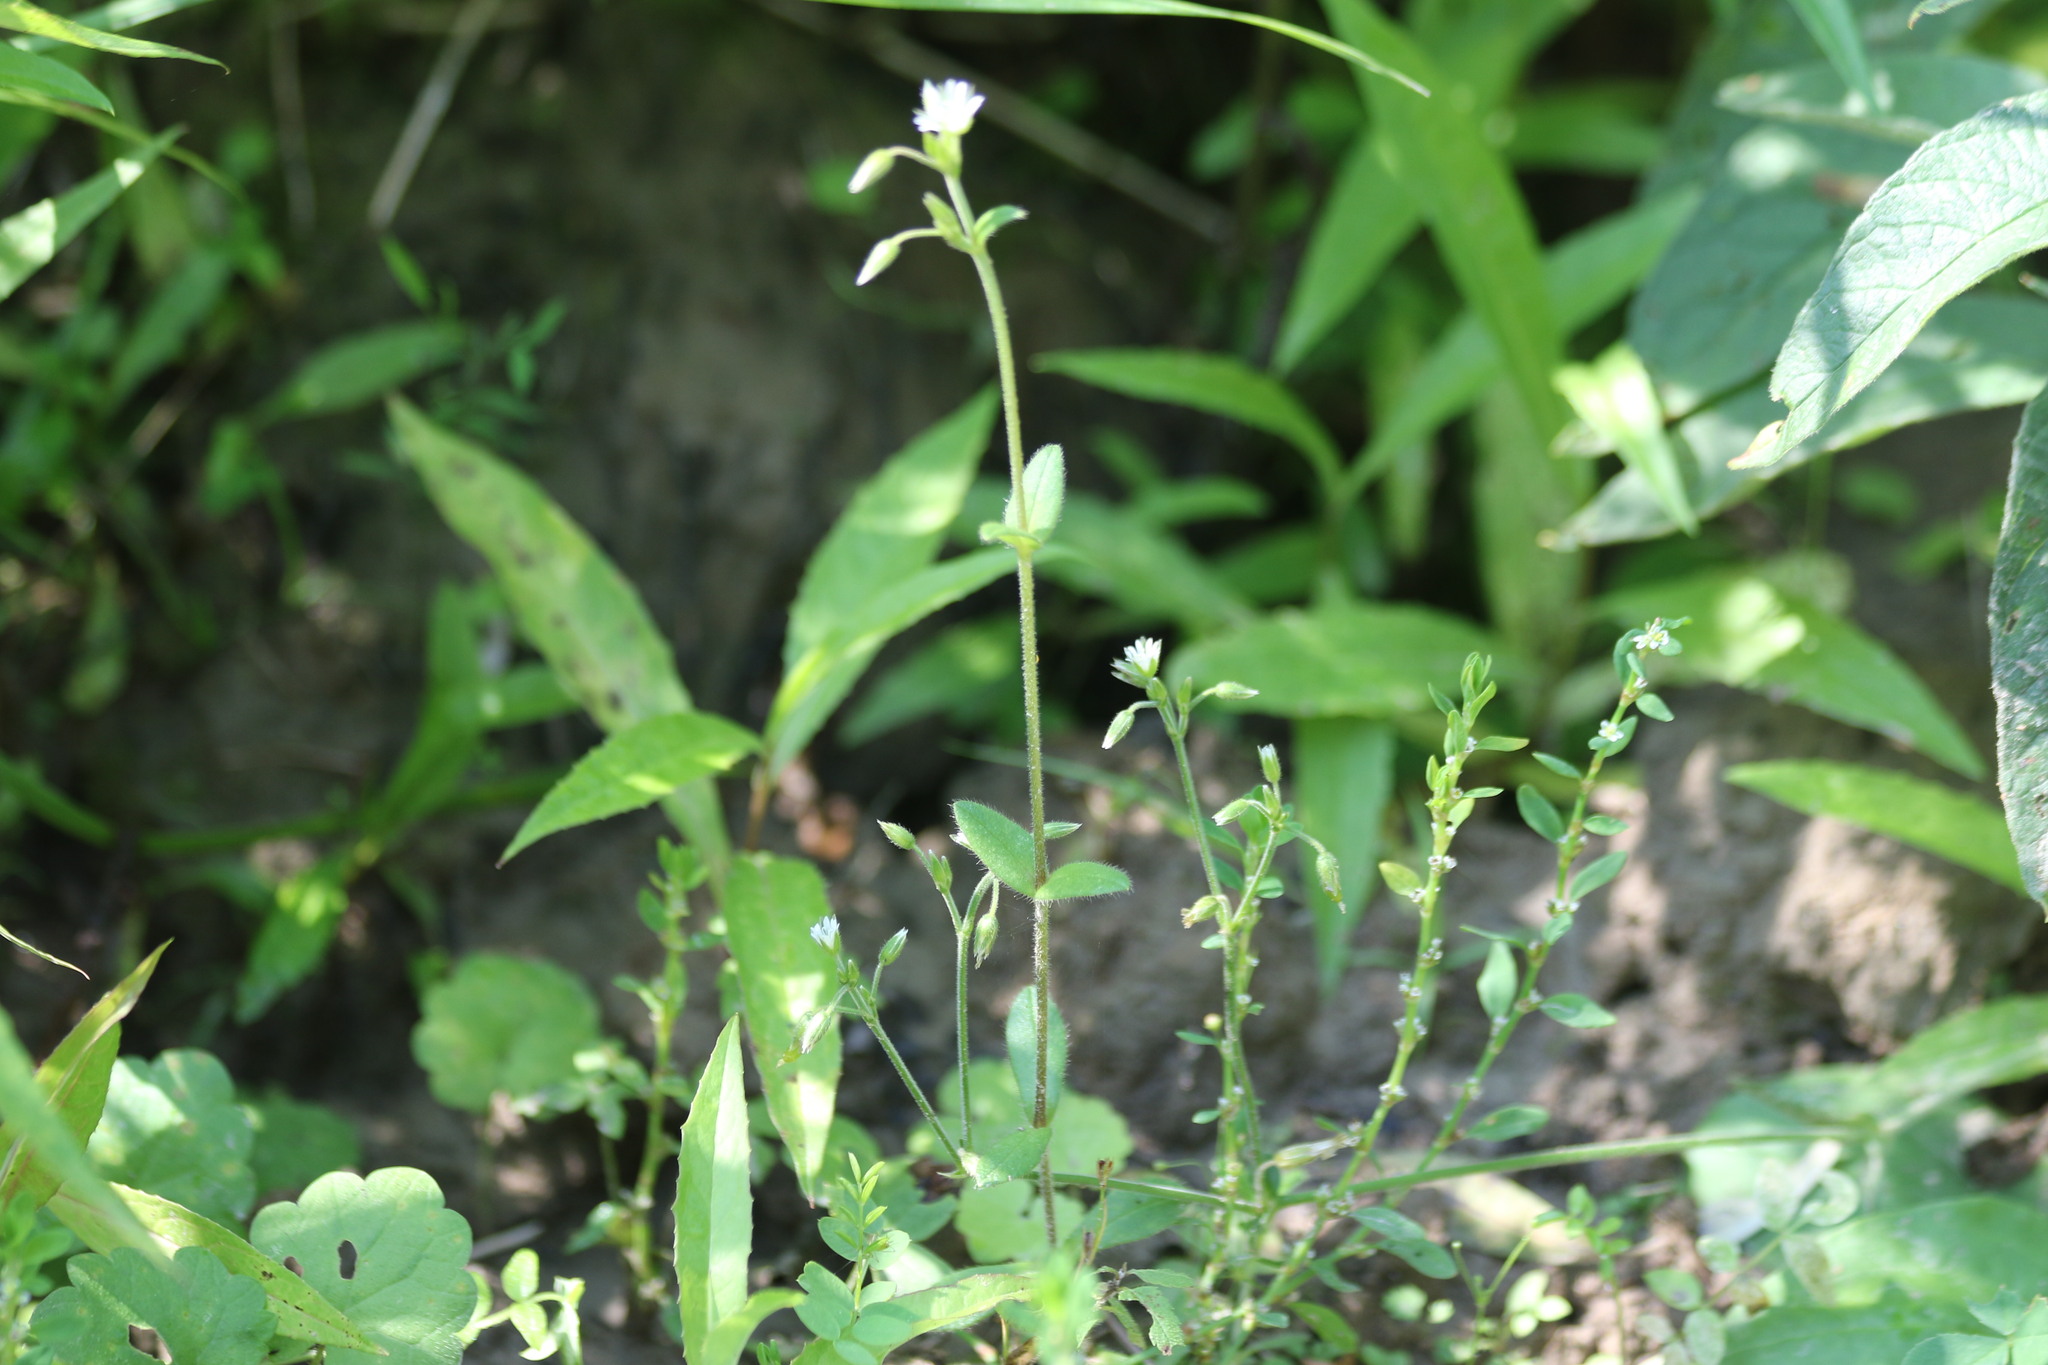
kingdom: Plantae
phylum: Tracheophyta
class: Magnoliopsida
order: Caryophyllales
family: Caryophyllaceae
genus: Cerastium
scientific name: Cerastium holosteoides
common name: Big chickweed
